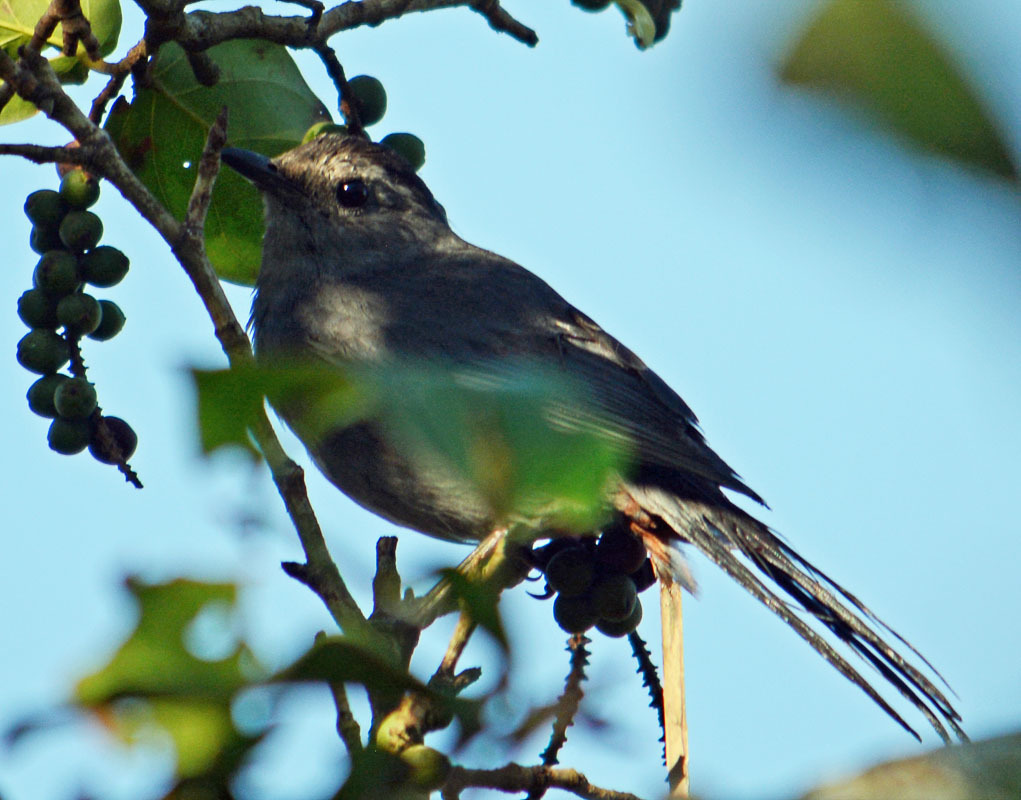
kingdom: Animalia
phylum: Chordata
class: Aves
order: Passeriformes
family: Mimidae
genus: Dumetella
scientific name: Dumetella carolinensis
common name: Gray catbird
